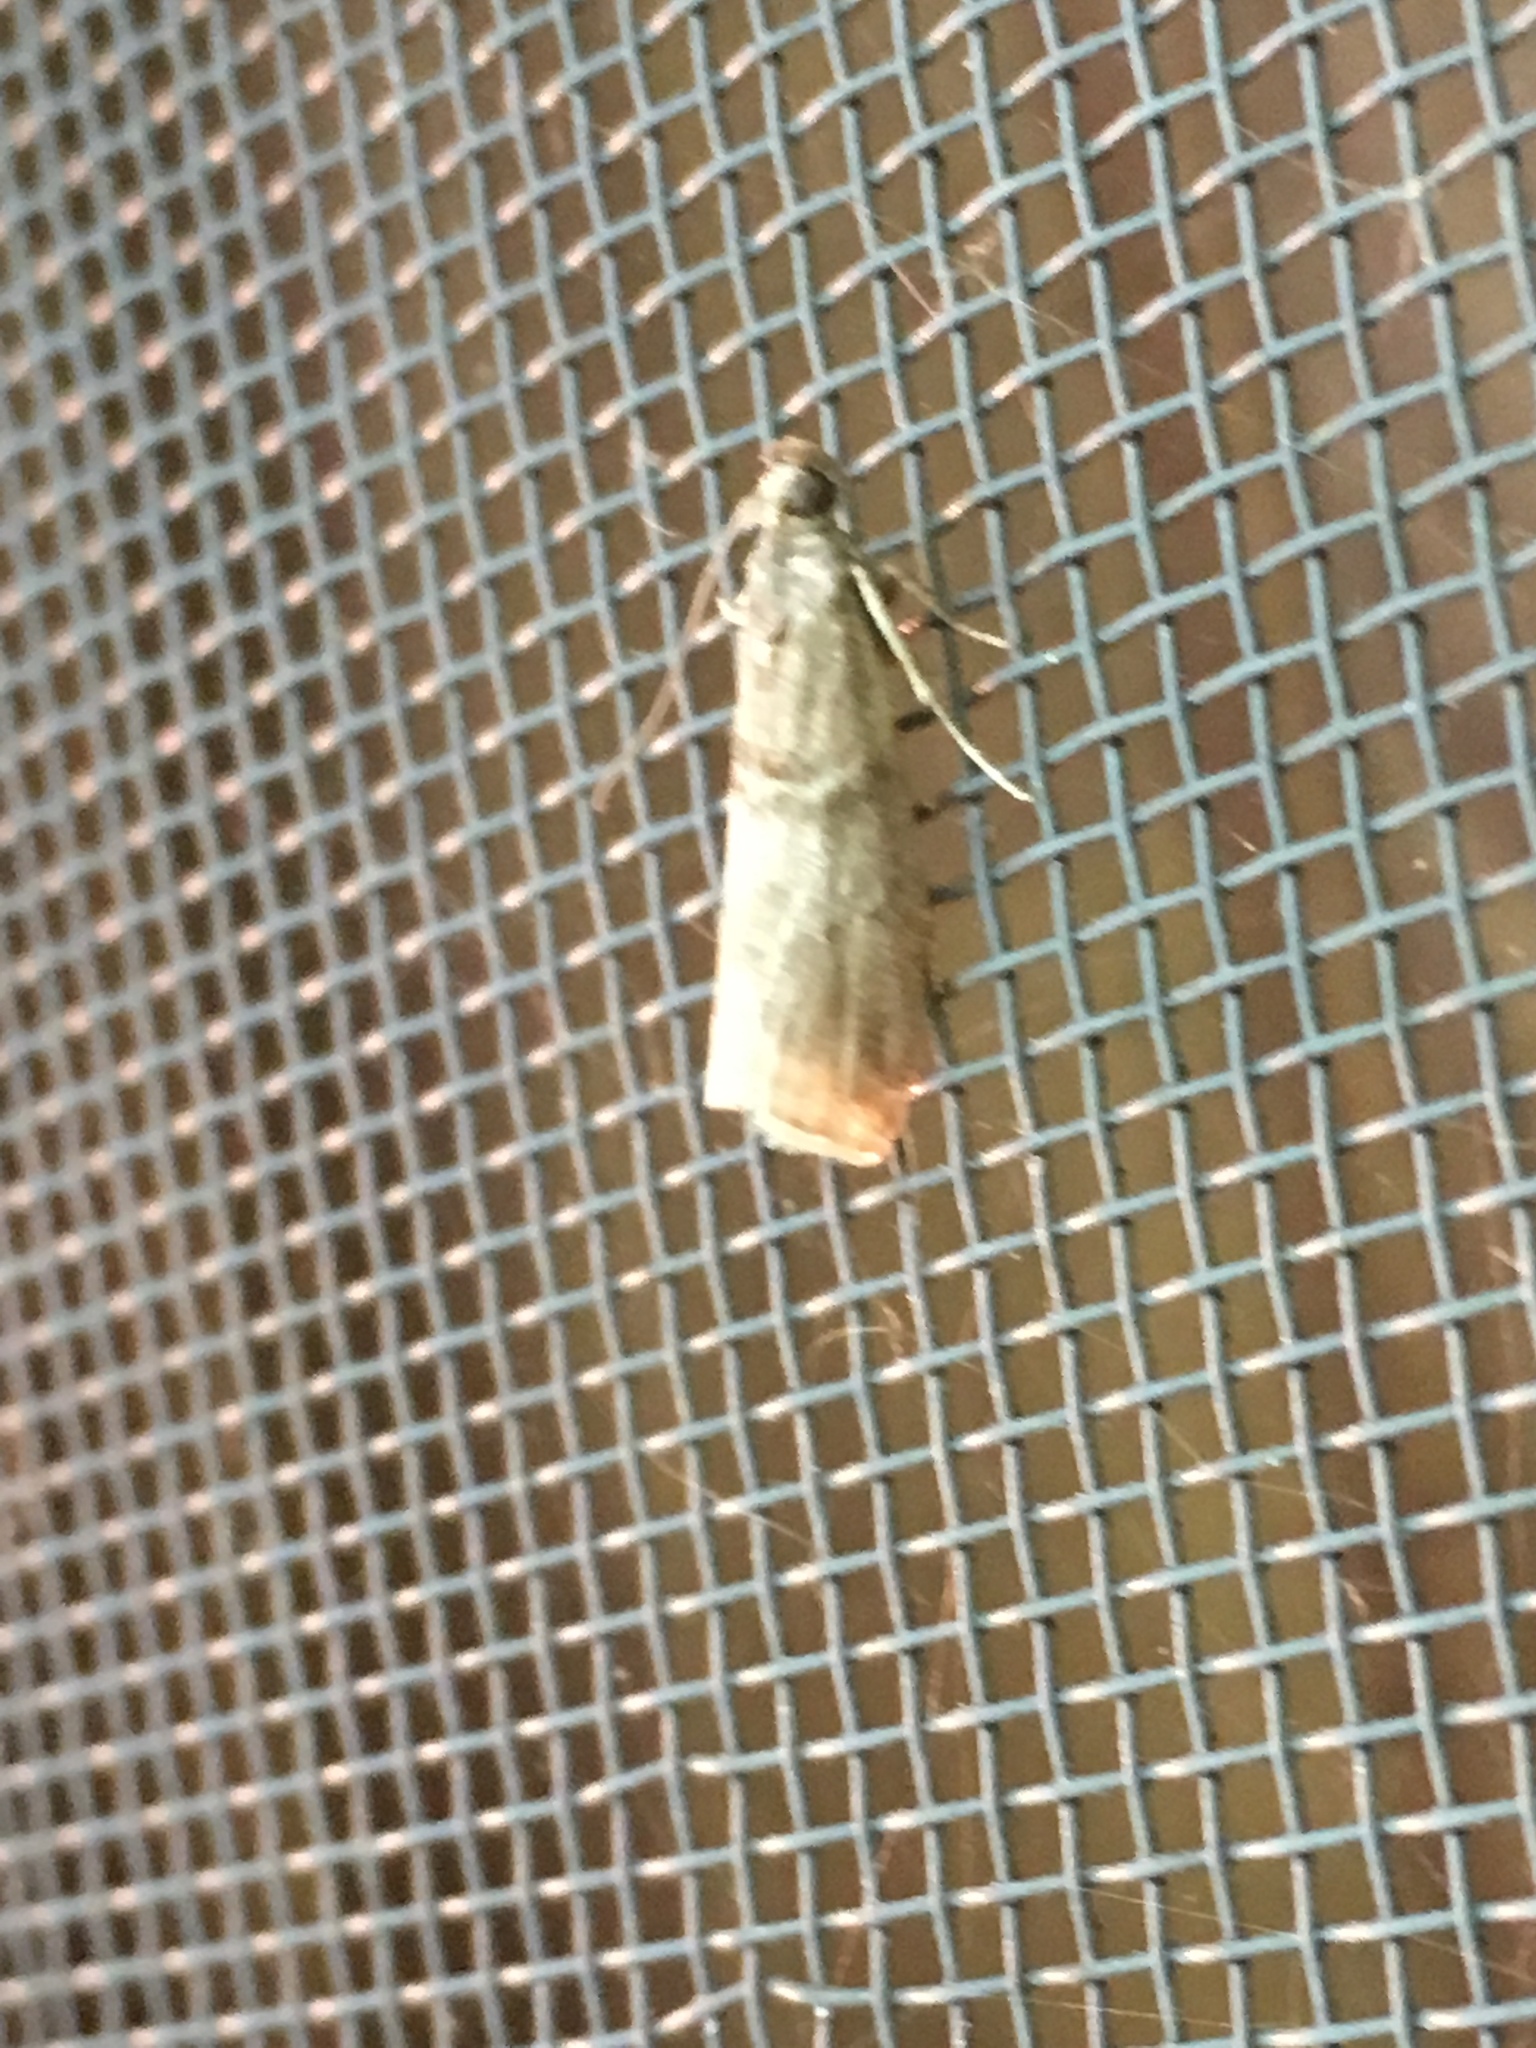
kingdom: Animalia
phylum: Arthropoda
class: Insecta
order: Lepidoptera
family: Pyralidae
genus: Immyrla
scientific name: Immyrla nigrovittella
